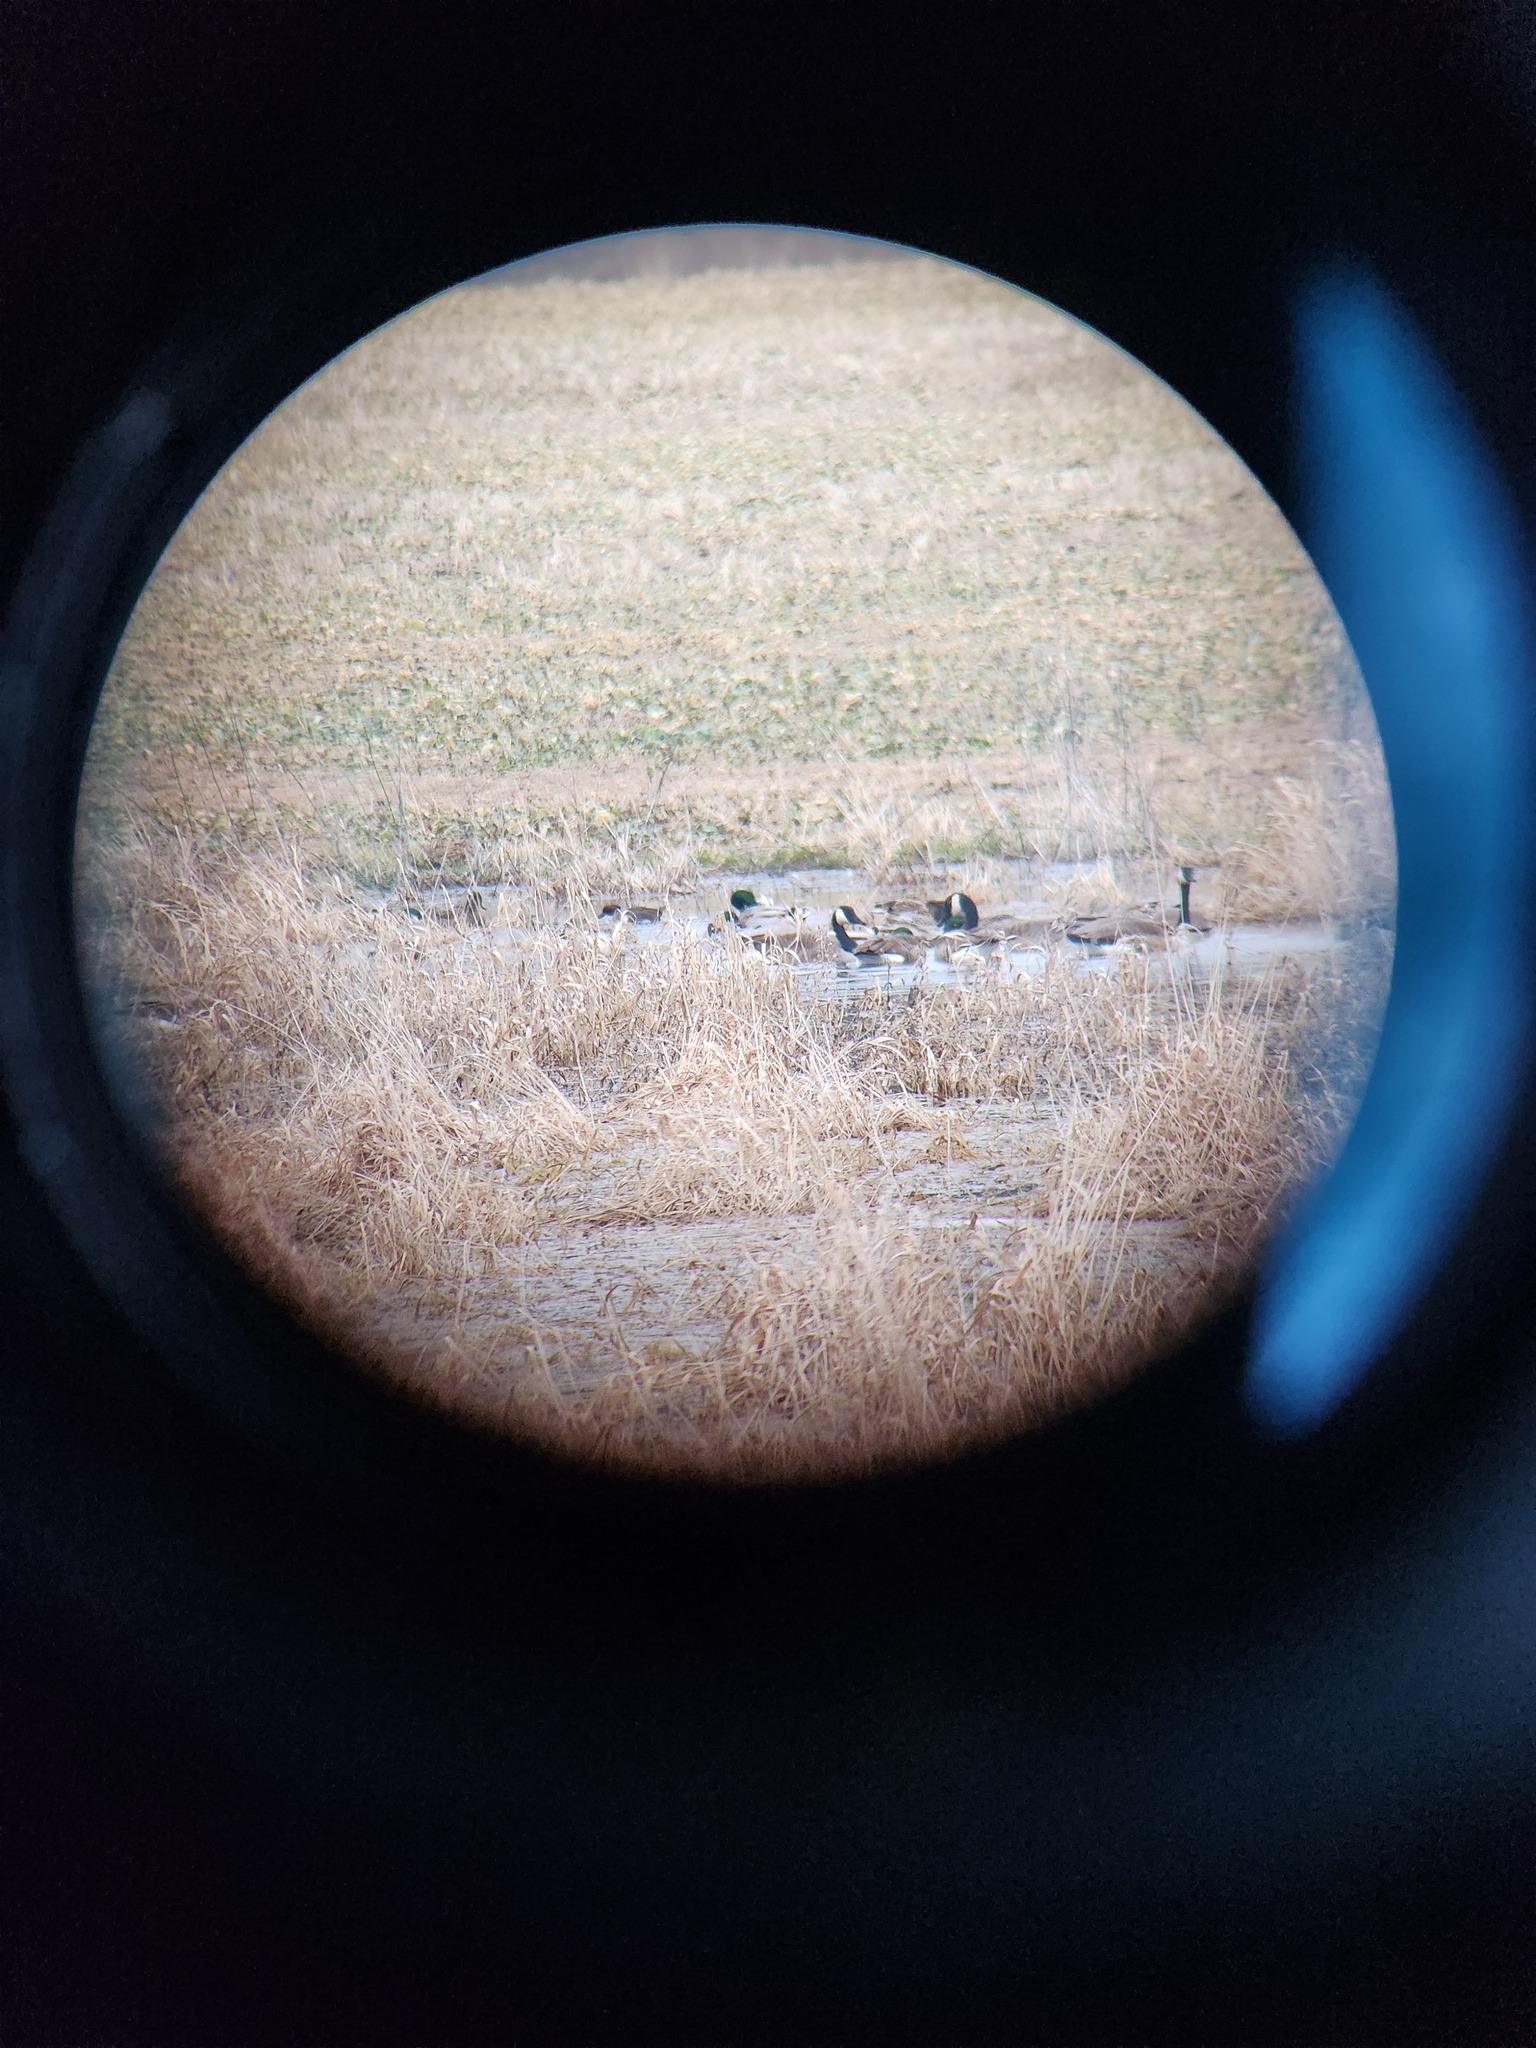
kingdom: Animalia
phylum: Chordata
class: Aves
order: Anseriformes
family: Anatidae
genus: Branta
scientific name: Branta canadensis
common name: Canada goose
